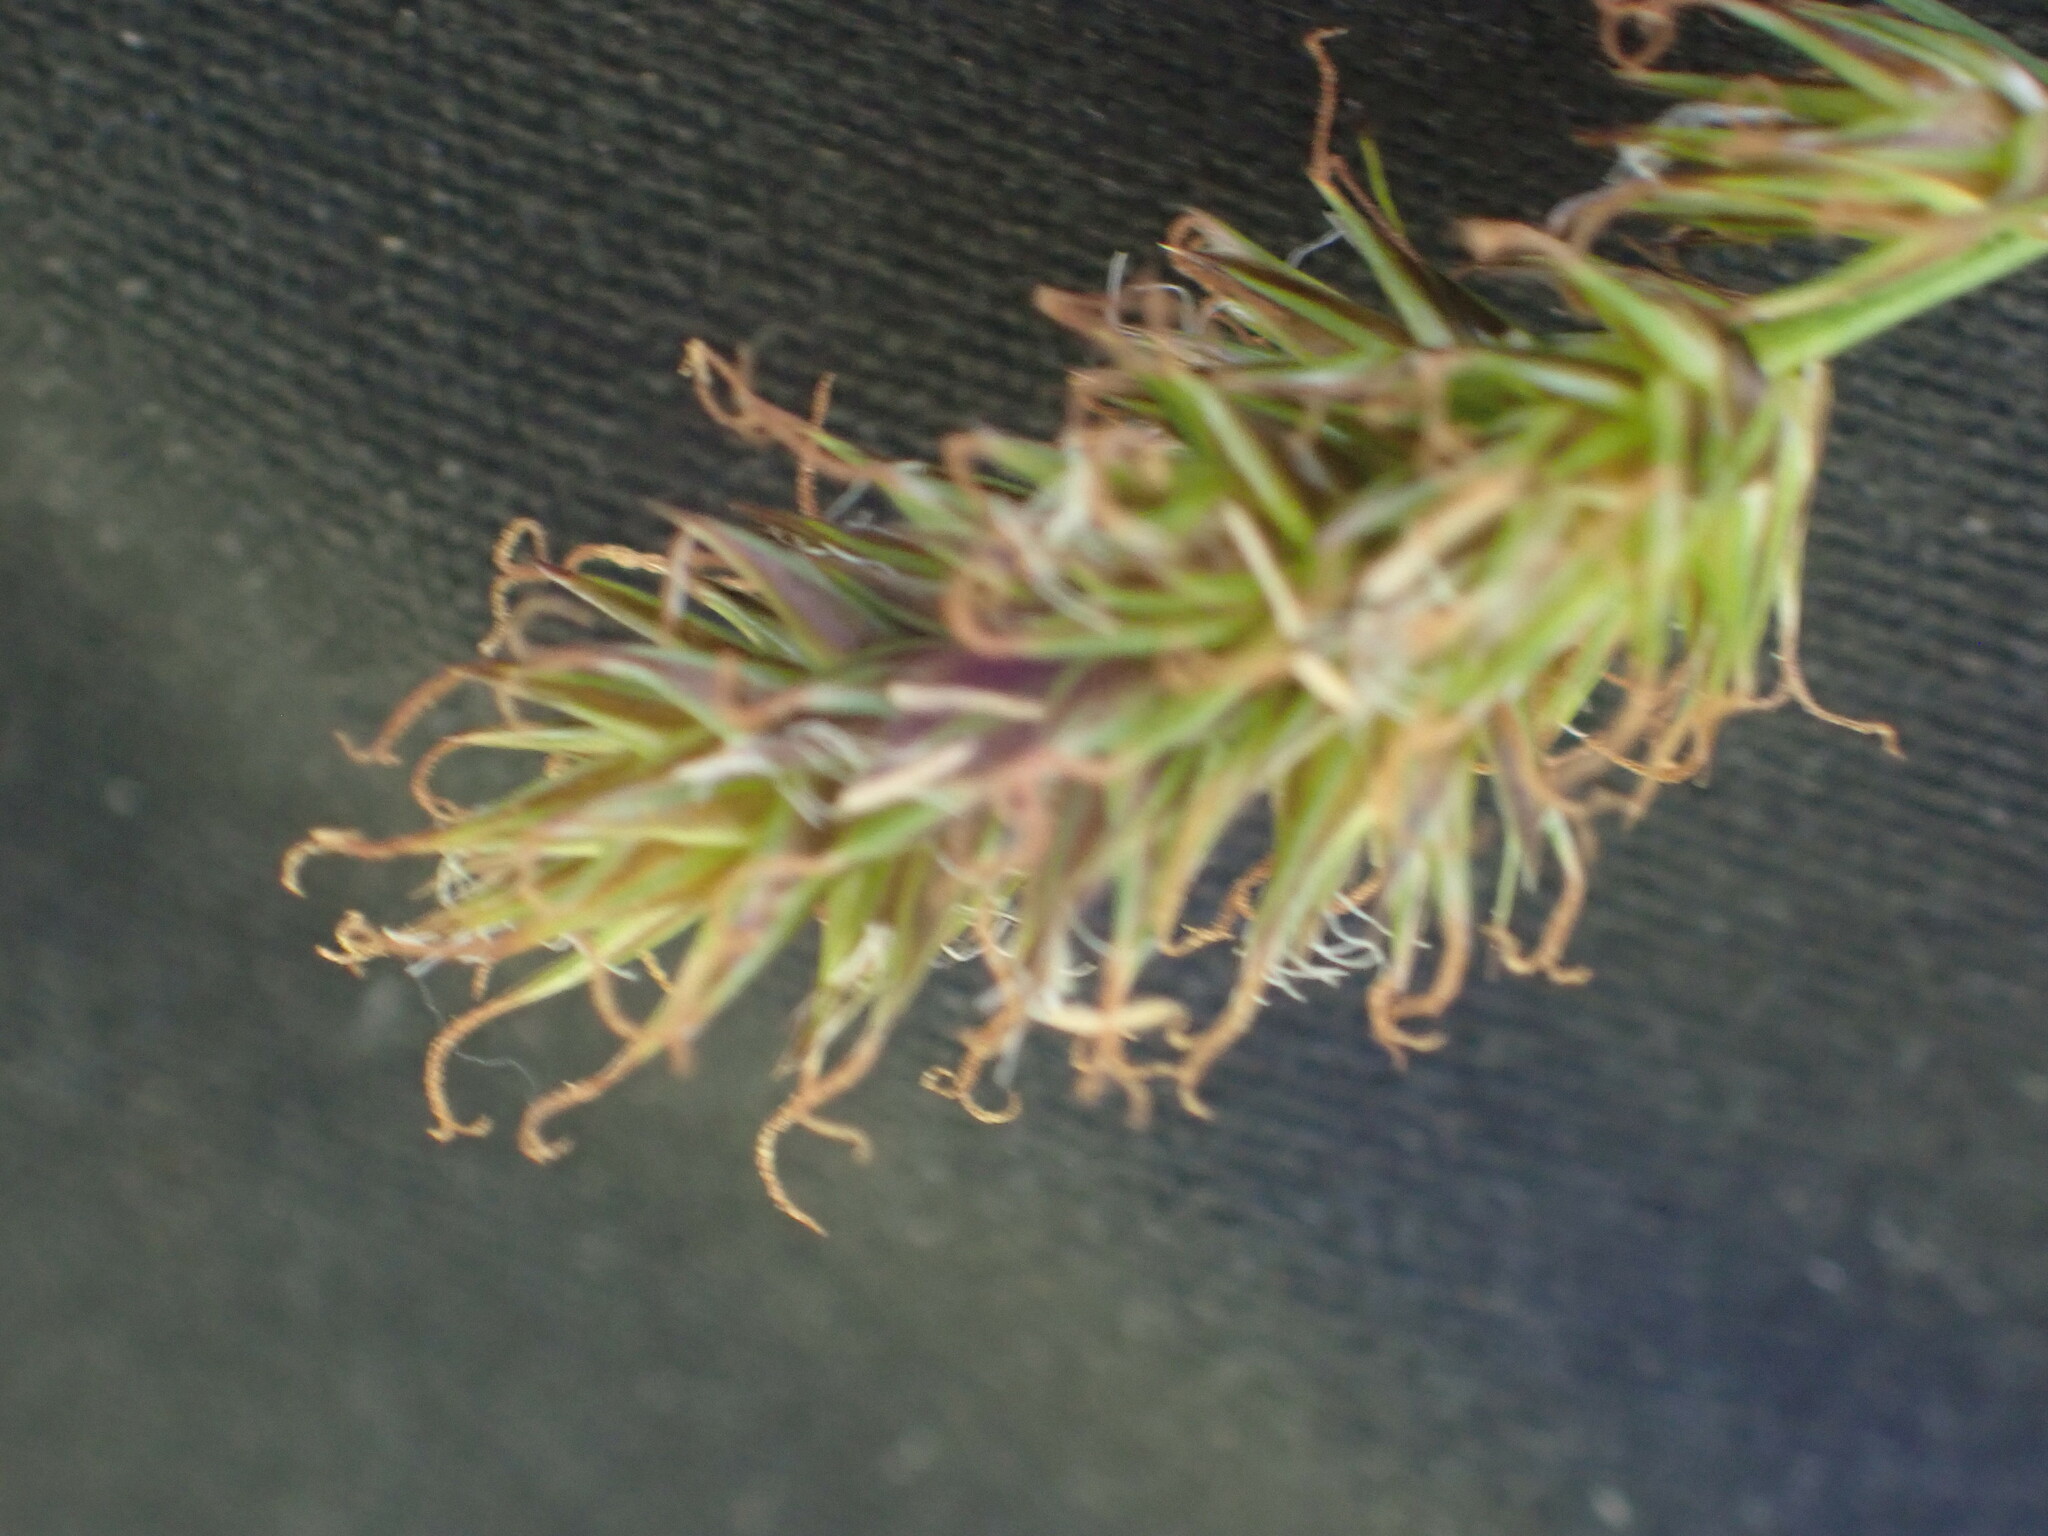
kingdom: Plantae
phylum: Tracheophyta
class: Liliopsida
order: Poales
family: Cyperaceae
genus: Carex
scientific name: Carex hoodii
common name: Hood's sedge
